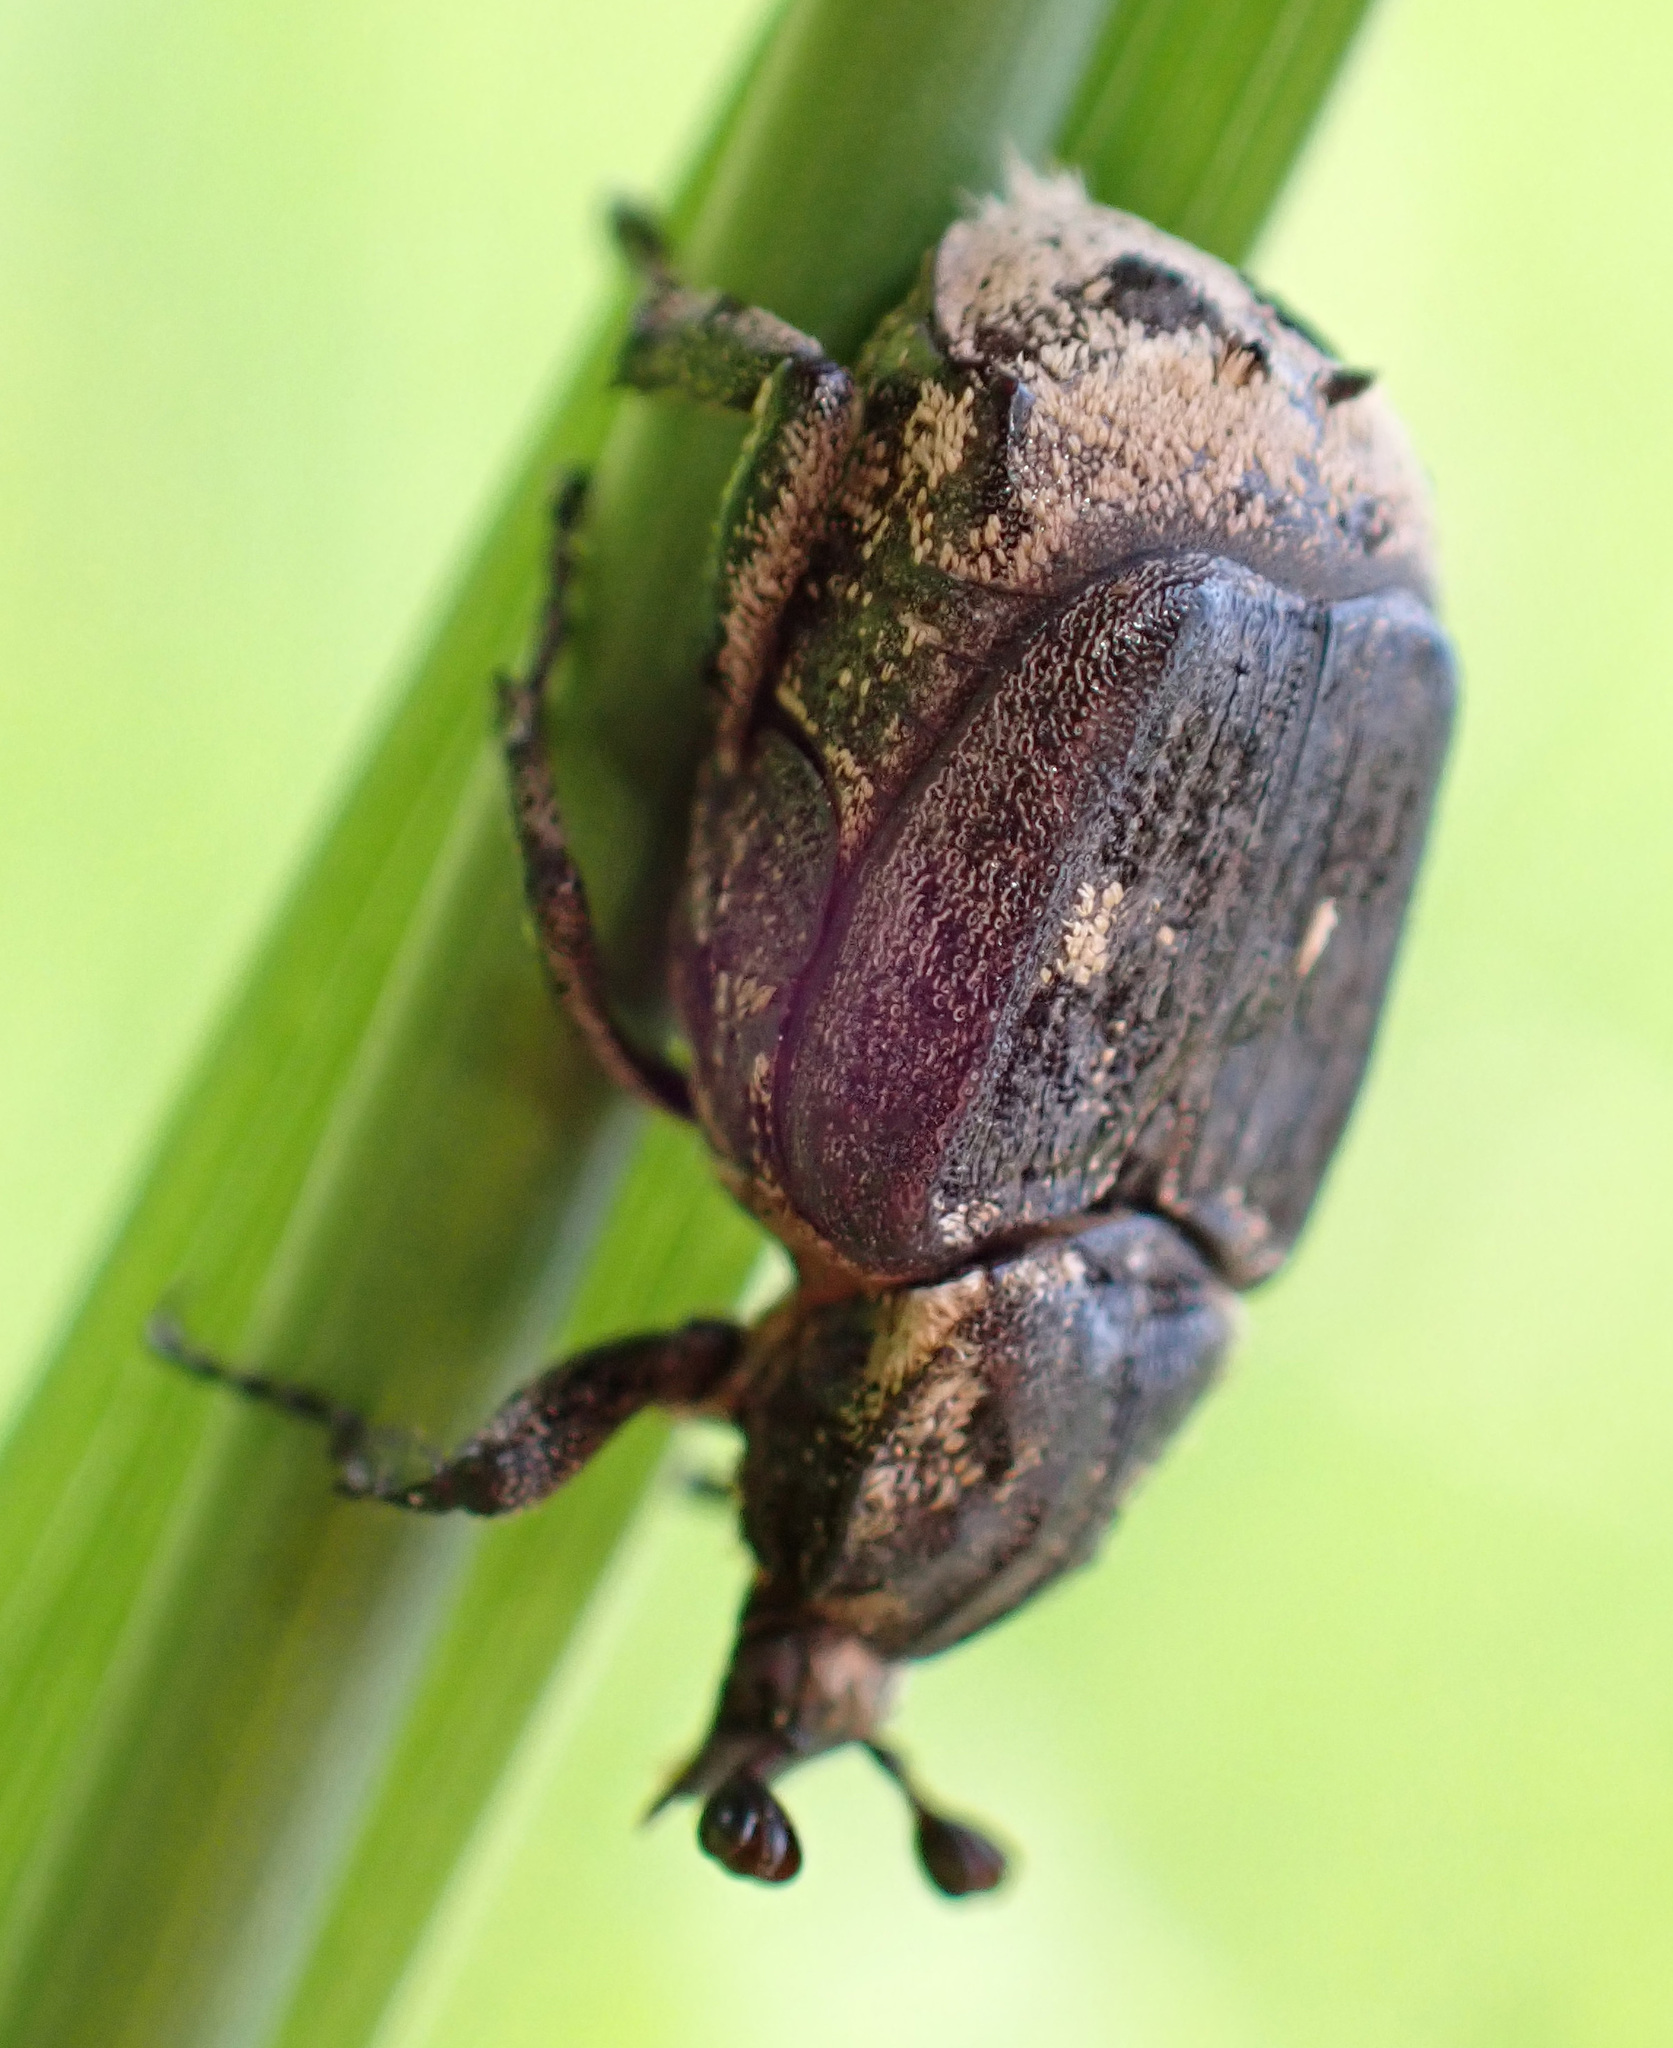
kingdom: Animalia
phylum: Arthropoda
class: Insecta
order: Coleoptera
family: Scarabaeidae
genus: Valgus
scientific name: Valgus hemipterus
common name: Bug flower chafer
